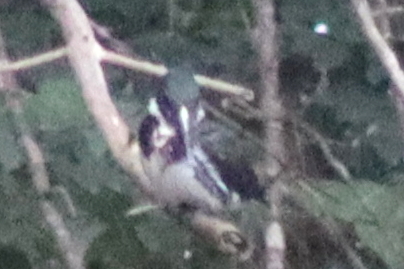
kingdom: Animalia
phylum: Chordata
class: Aves
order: Coraciiformes
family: Alcedinidae
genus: Chloroceryle
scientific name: Chloroceryle amazona
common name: Amazon kingfisher
